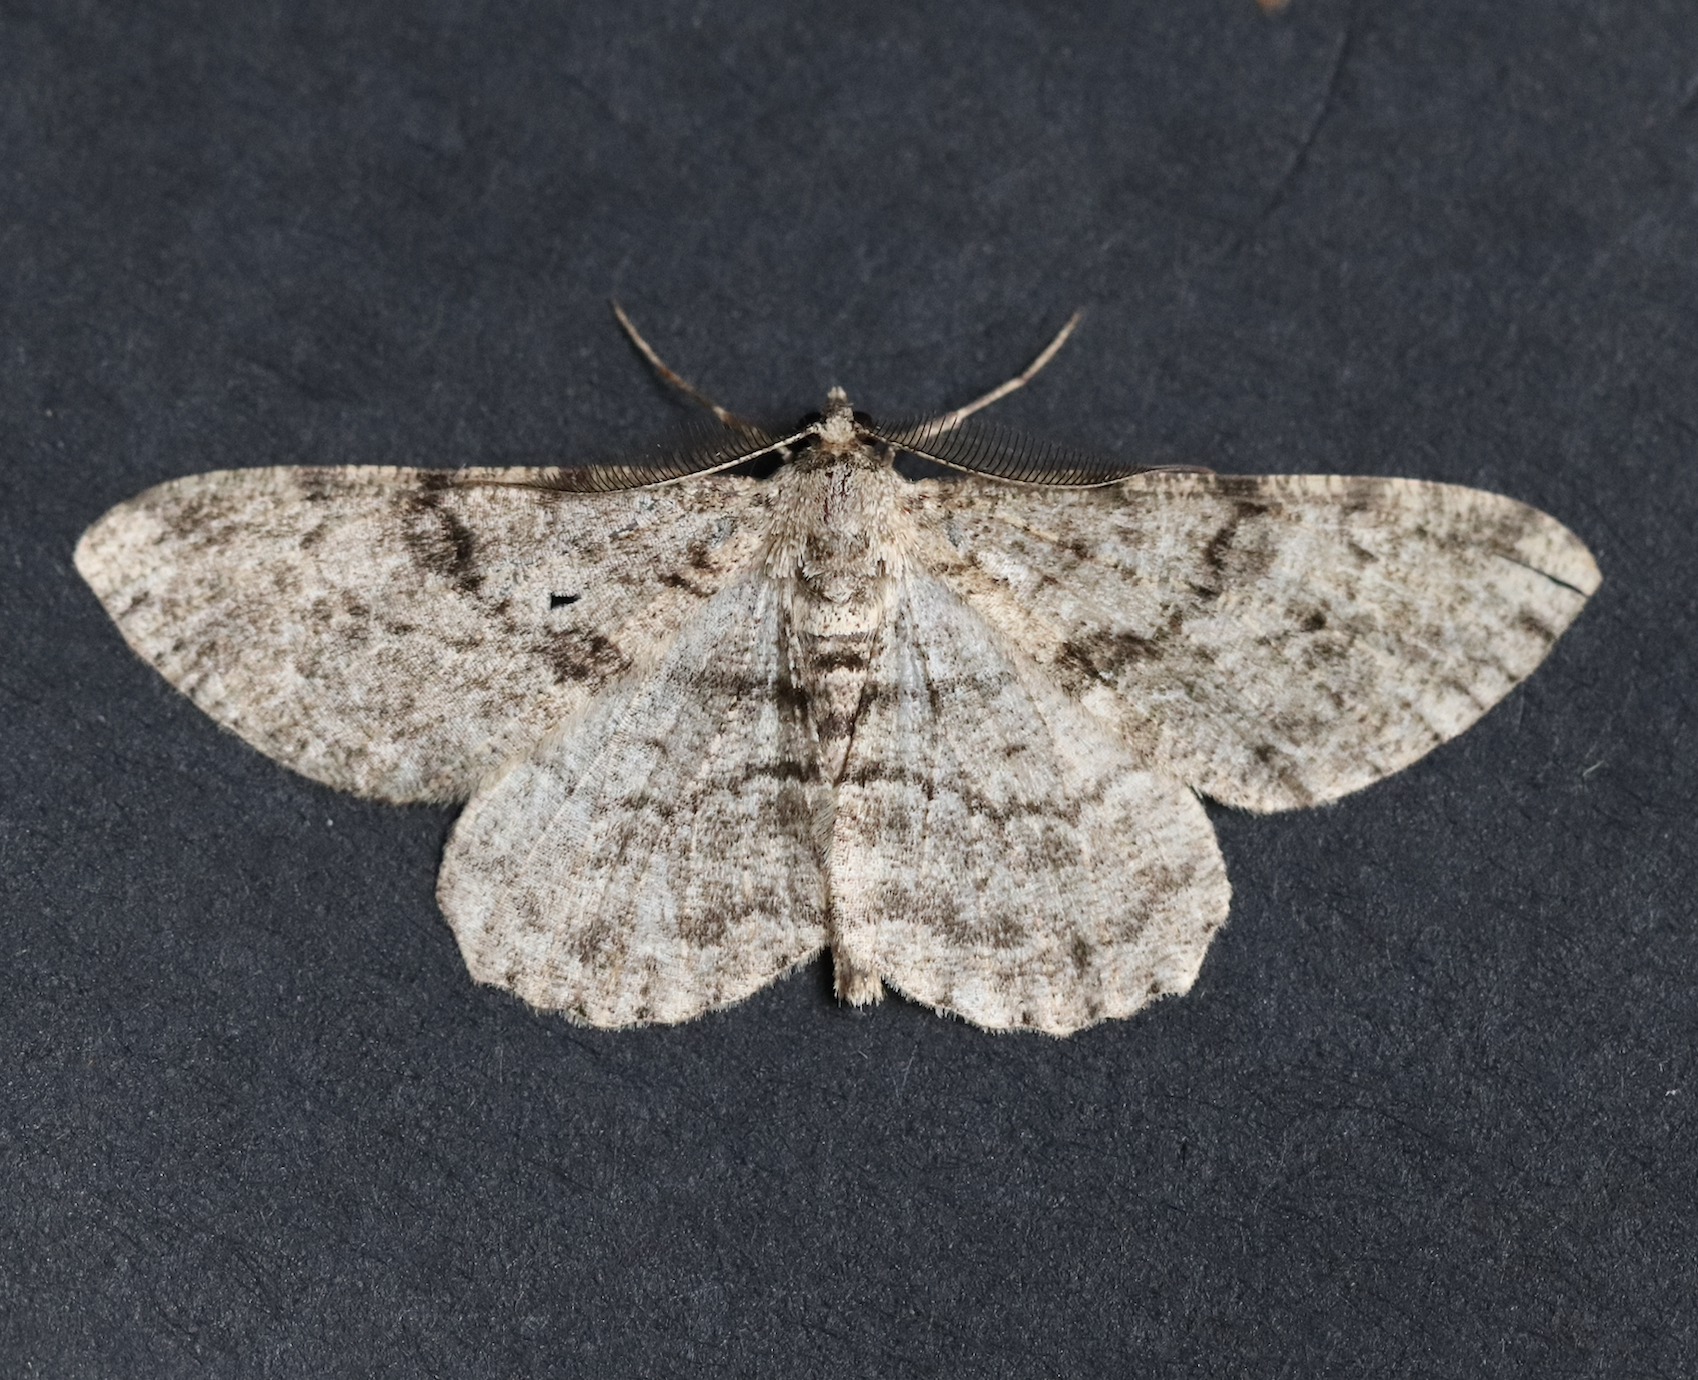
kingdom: Animalia
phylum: Arthropoda
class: Insecta
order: Lepidoptera
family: Geometridae
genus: Peribatodes
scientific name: Peribatodes rhomboidaria
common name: Willow beauty
